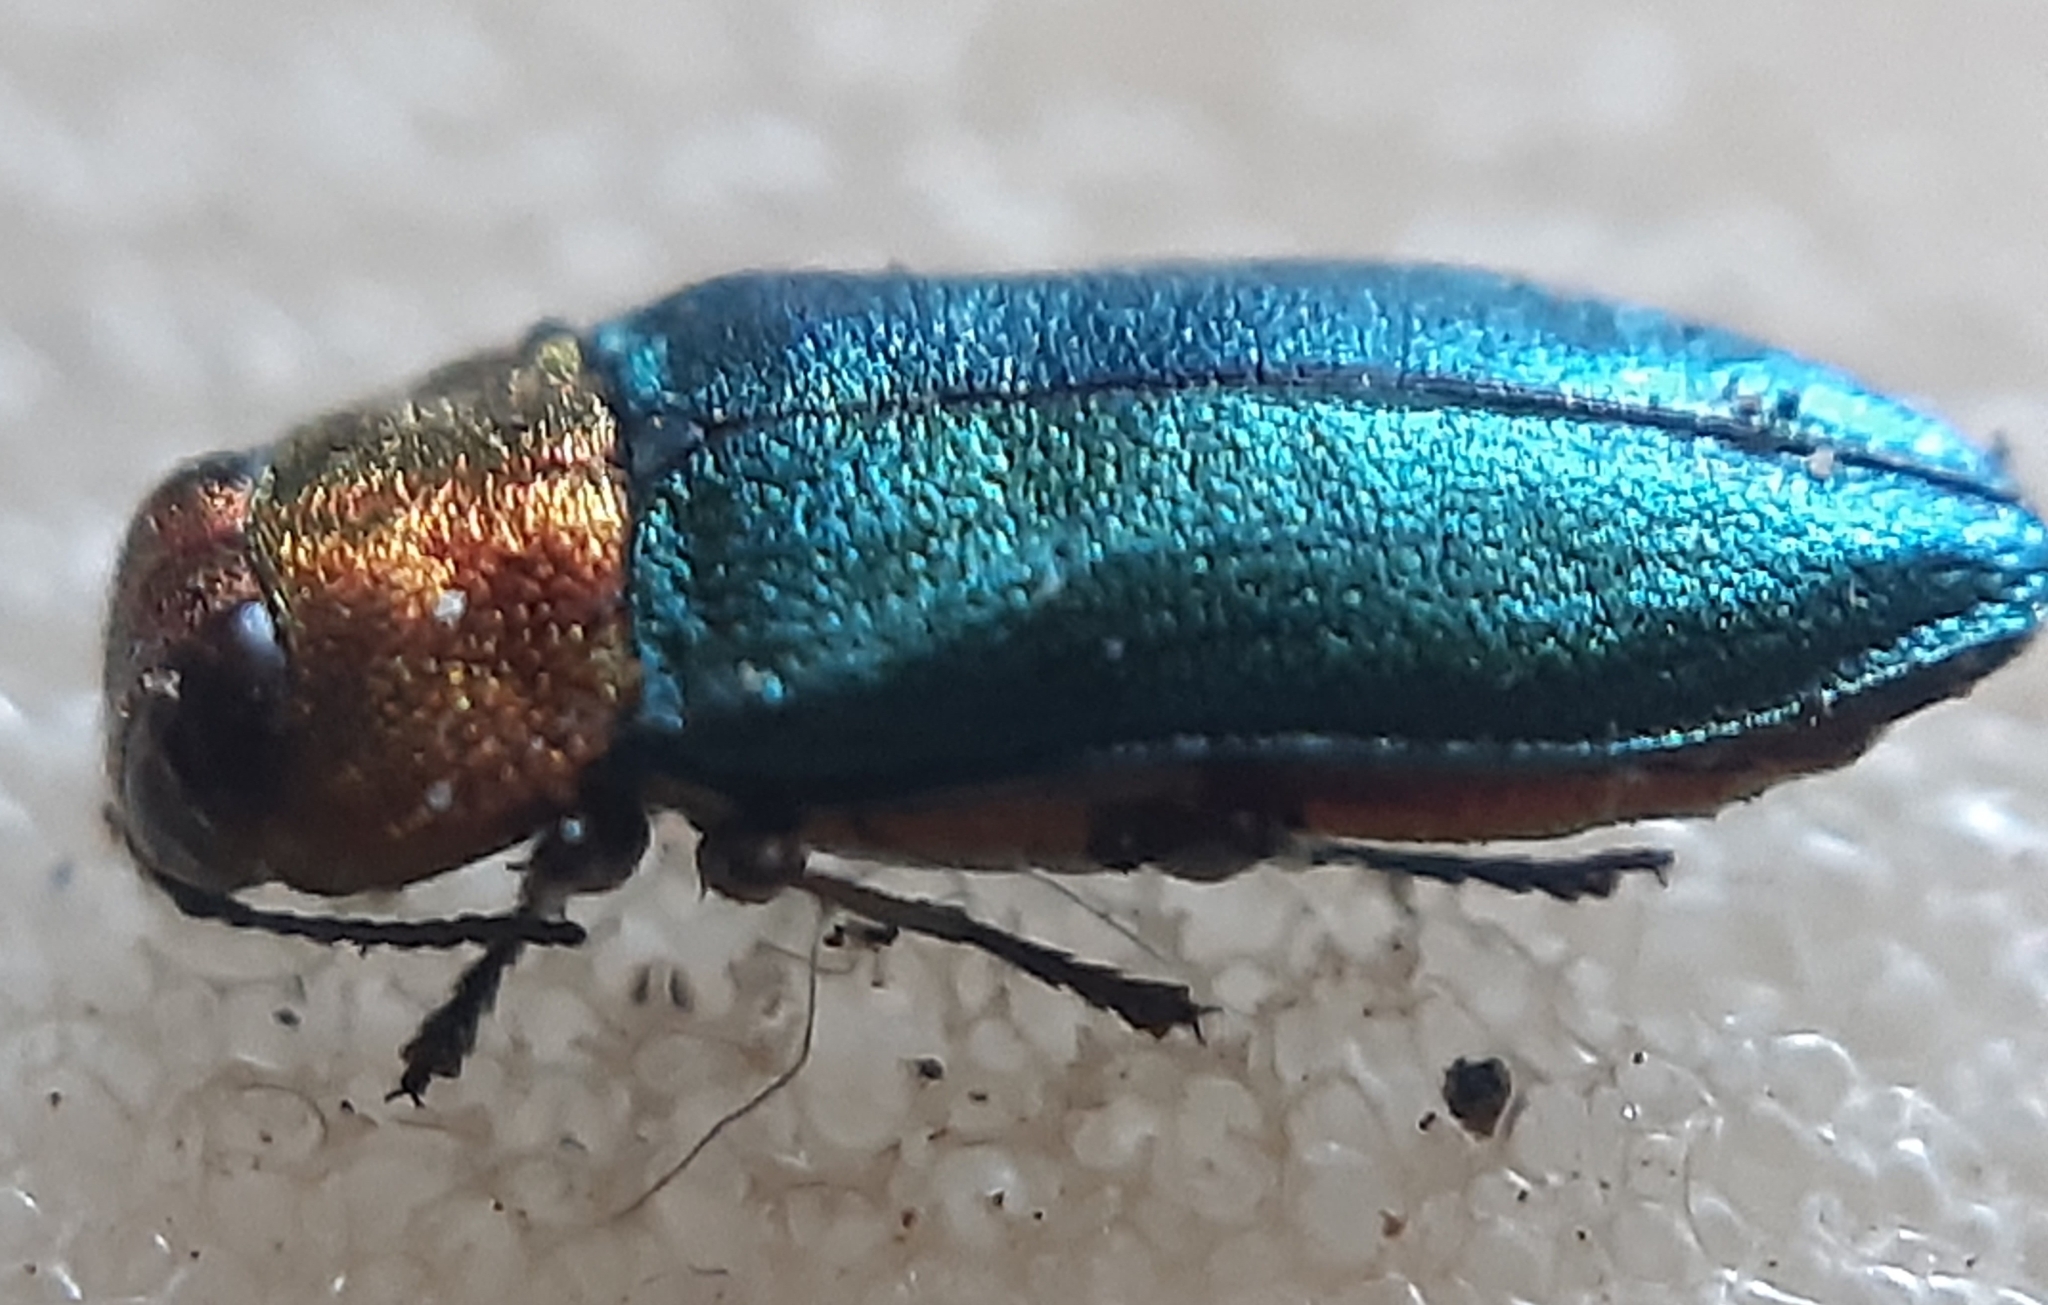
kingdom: Animalia
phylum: Arthropoda
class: Insecta
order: Coleoptera
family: Buprestidae
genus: Anthaxia
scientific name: Anthaxia nitidula
